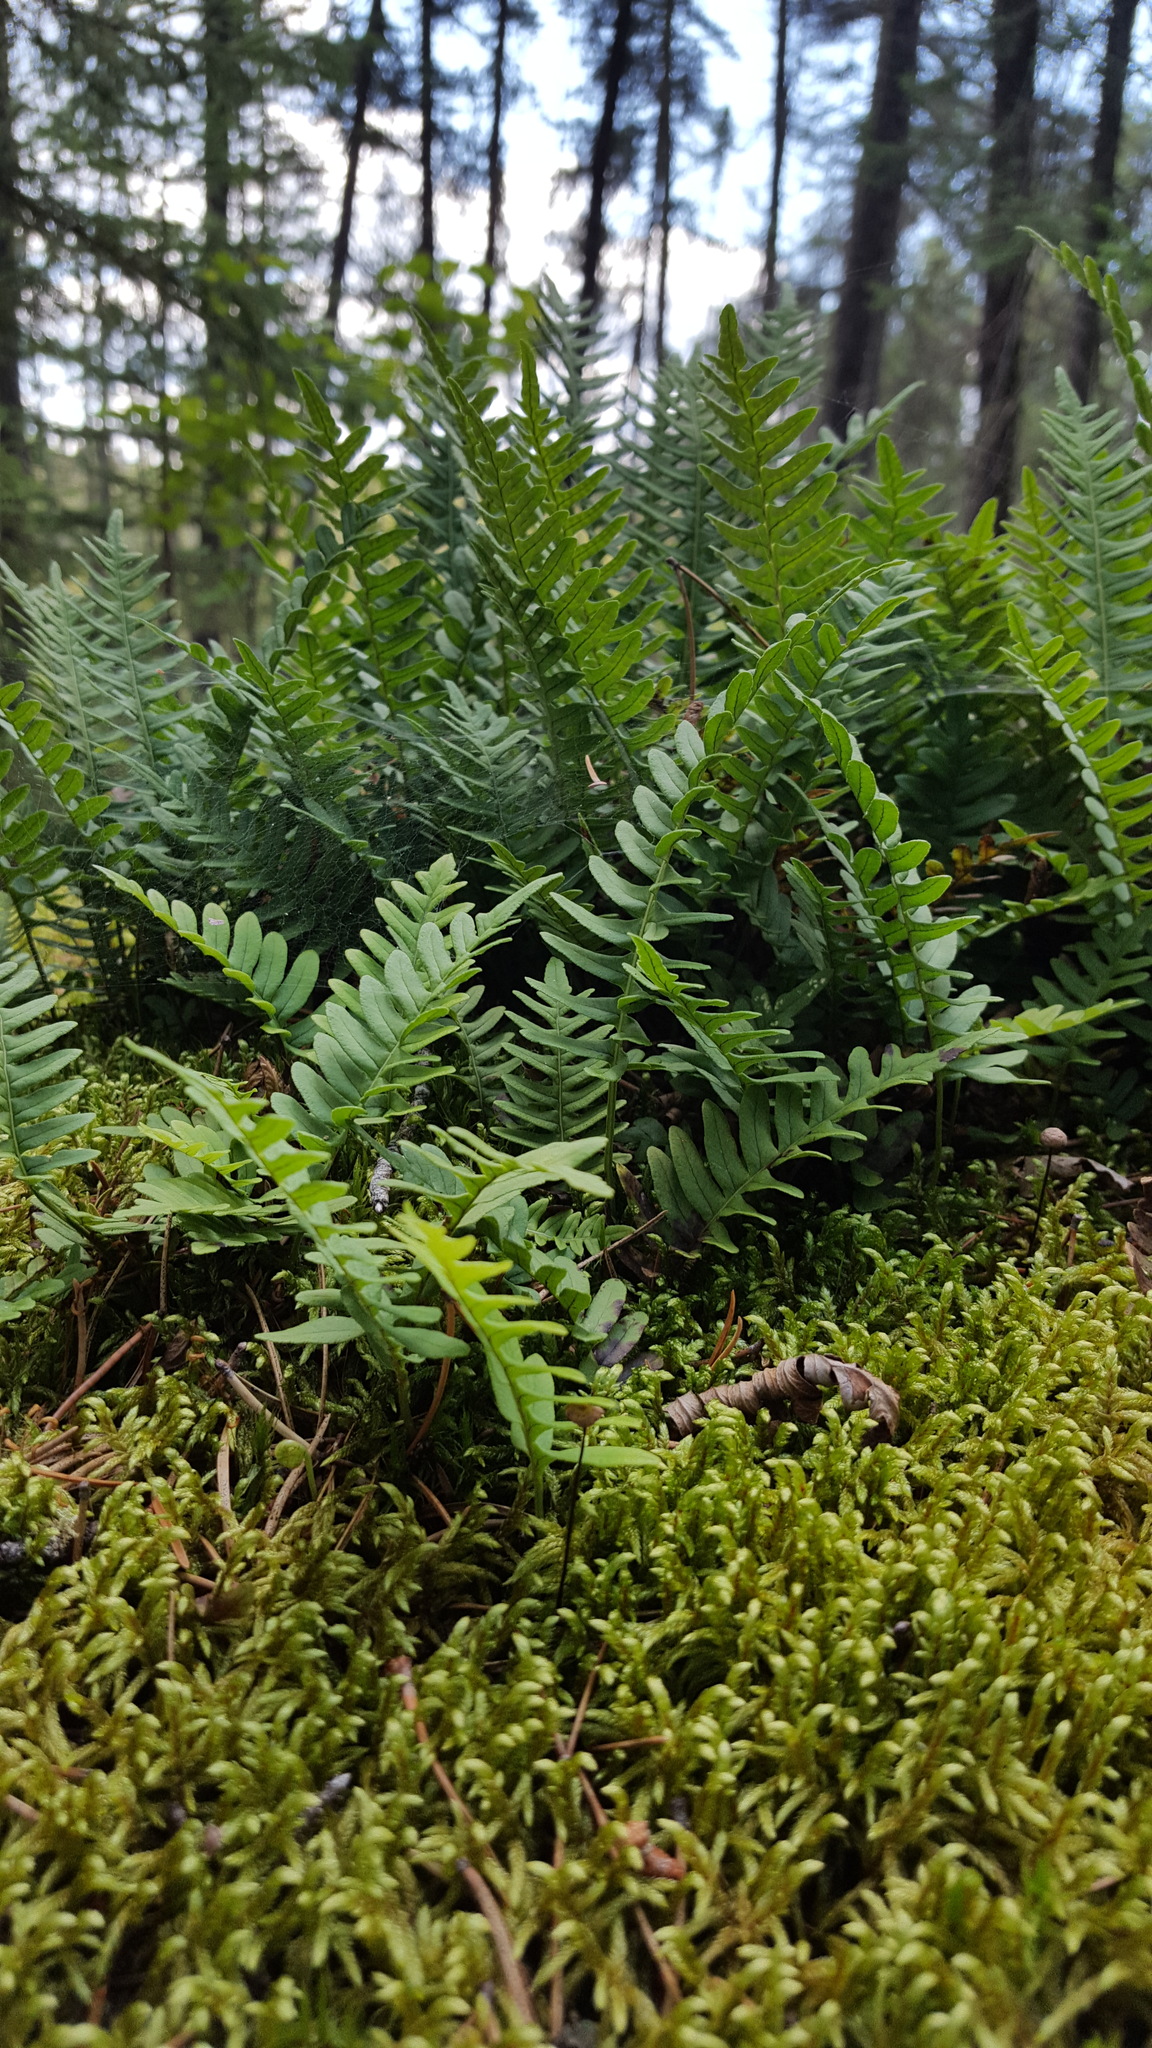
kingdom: Plantae
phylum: Tracheophyta
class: Polypodiopsida
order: Polypodiales
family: Polypodiaceae
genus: Polypodium
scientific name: Polypodium virginianum
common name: American wall fern
